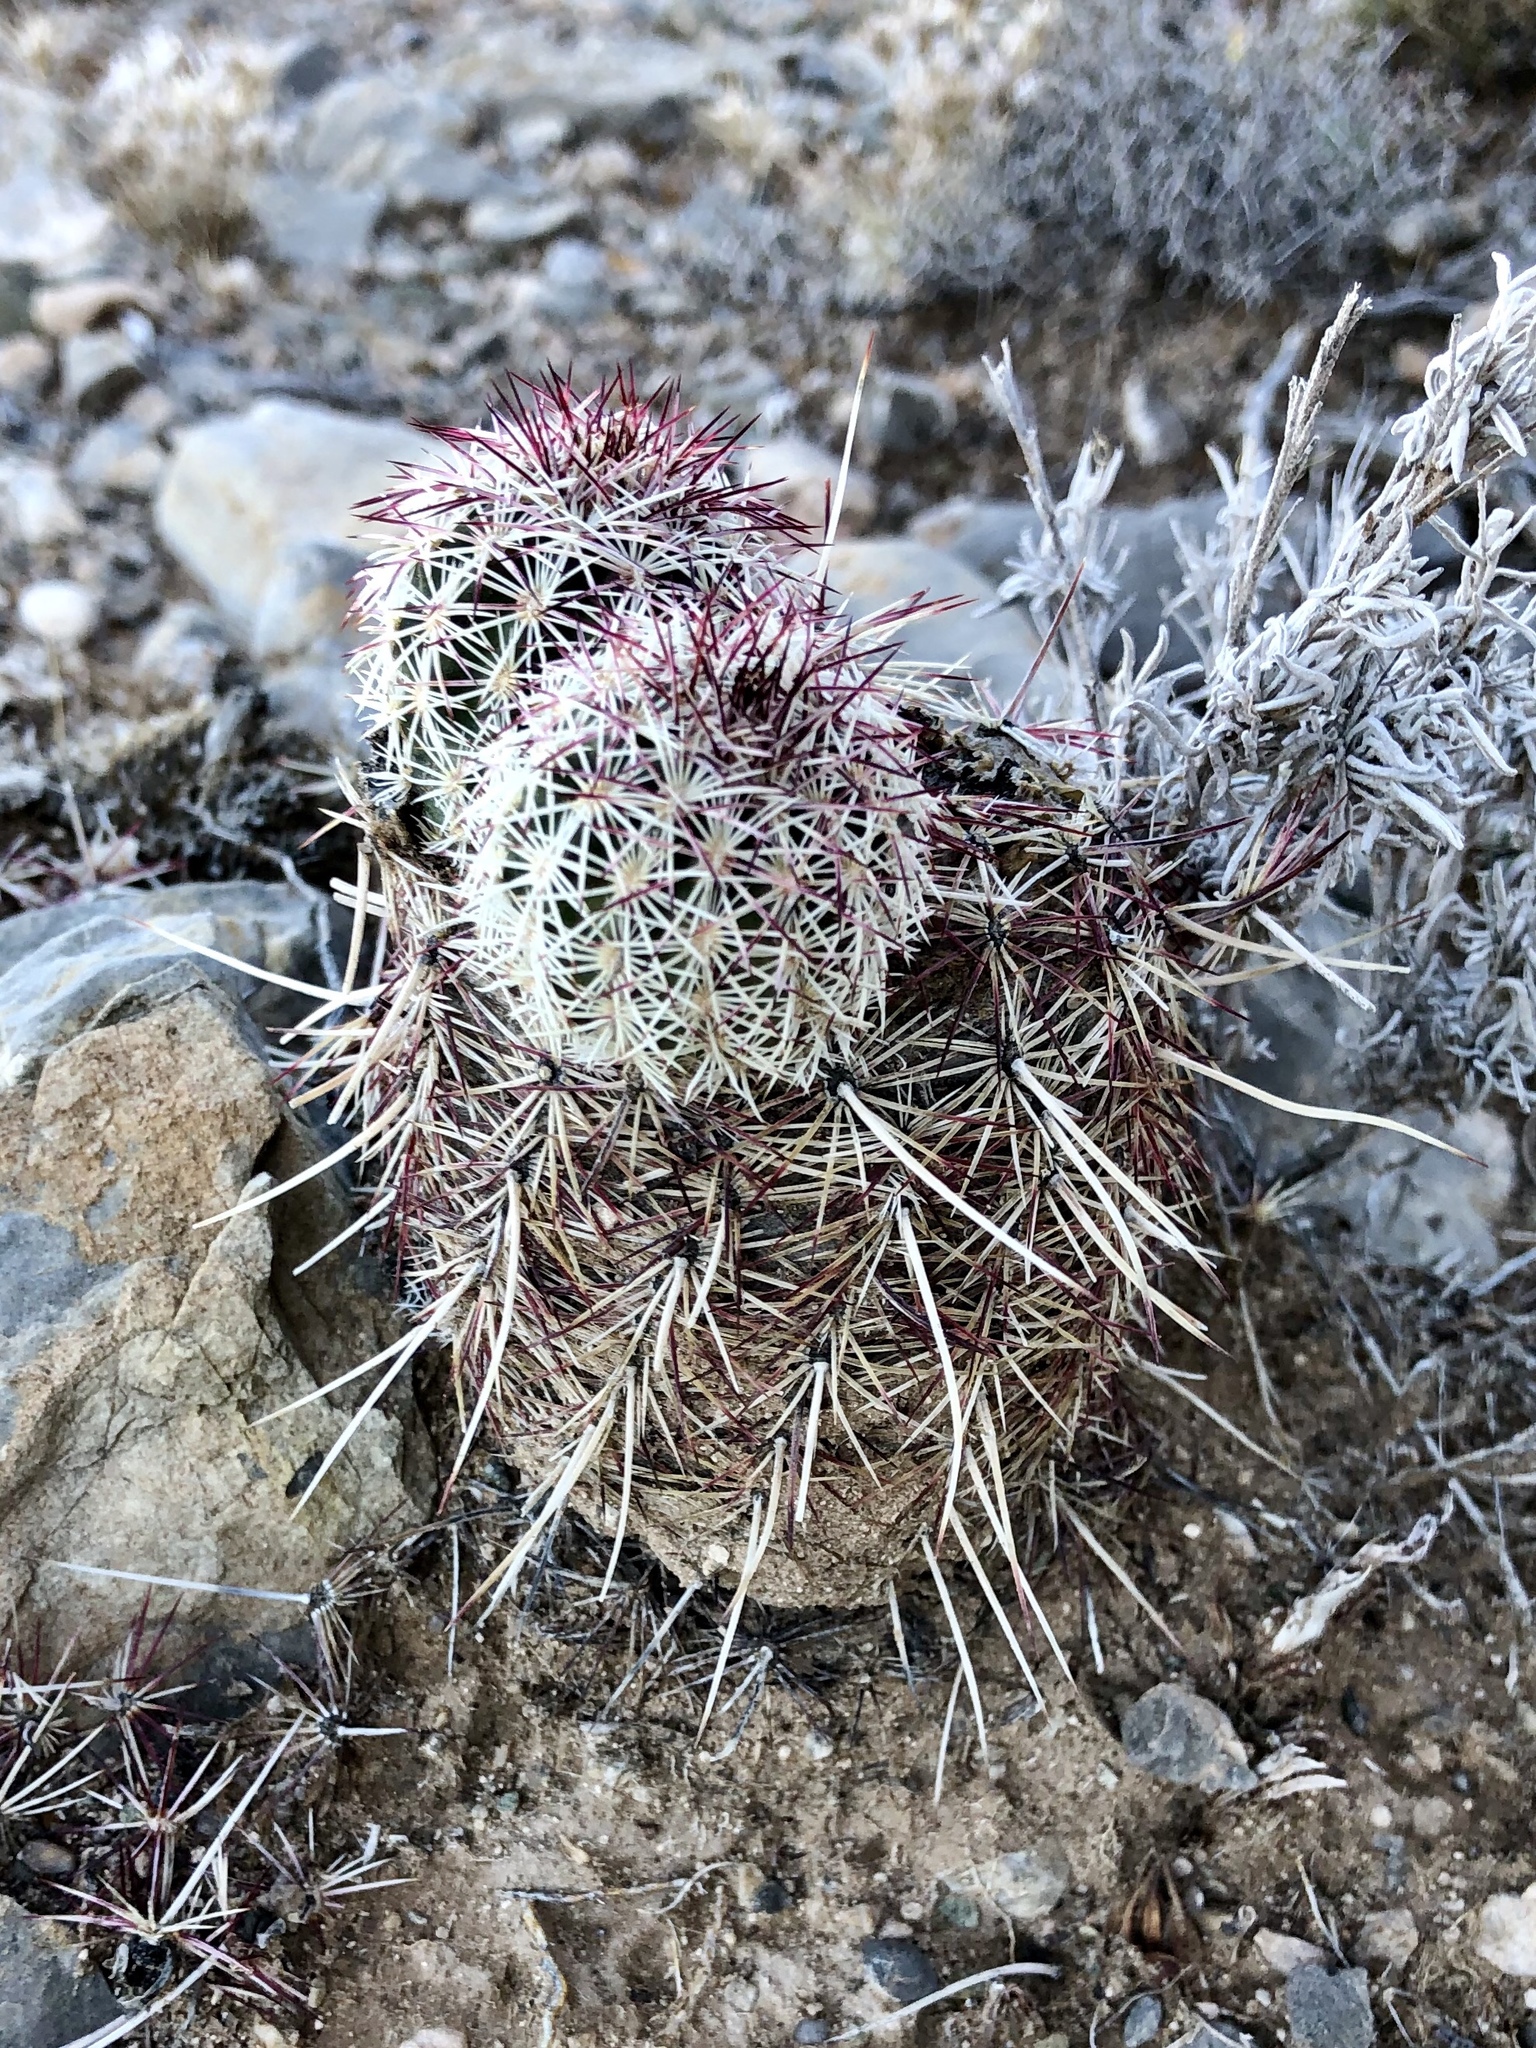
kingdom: Plantae
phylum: Tracheophyta
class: Magnoliopsida
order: Caryophyllales
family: Cactaceae
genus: Echinocereus
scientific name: Echinocereus viridiflorus
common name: Nylon hedgehog cactus
